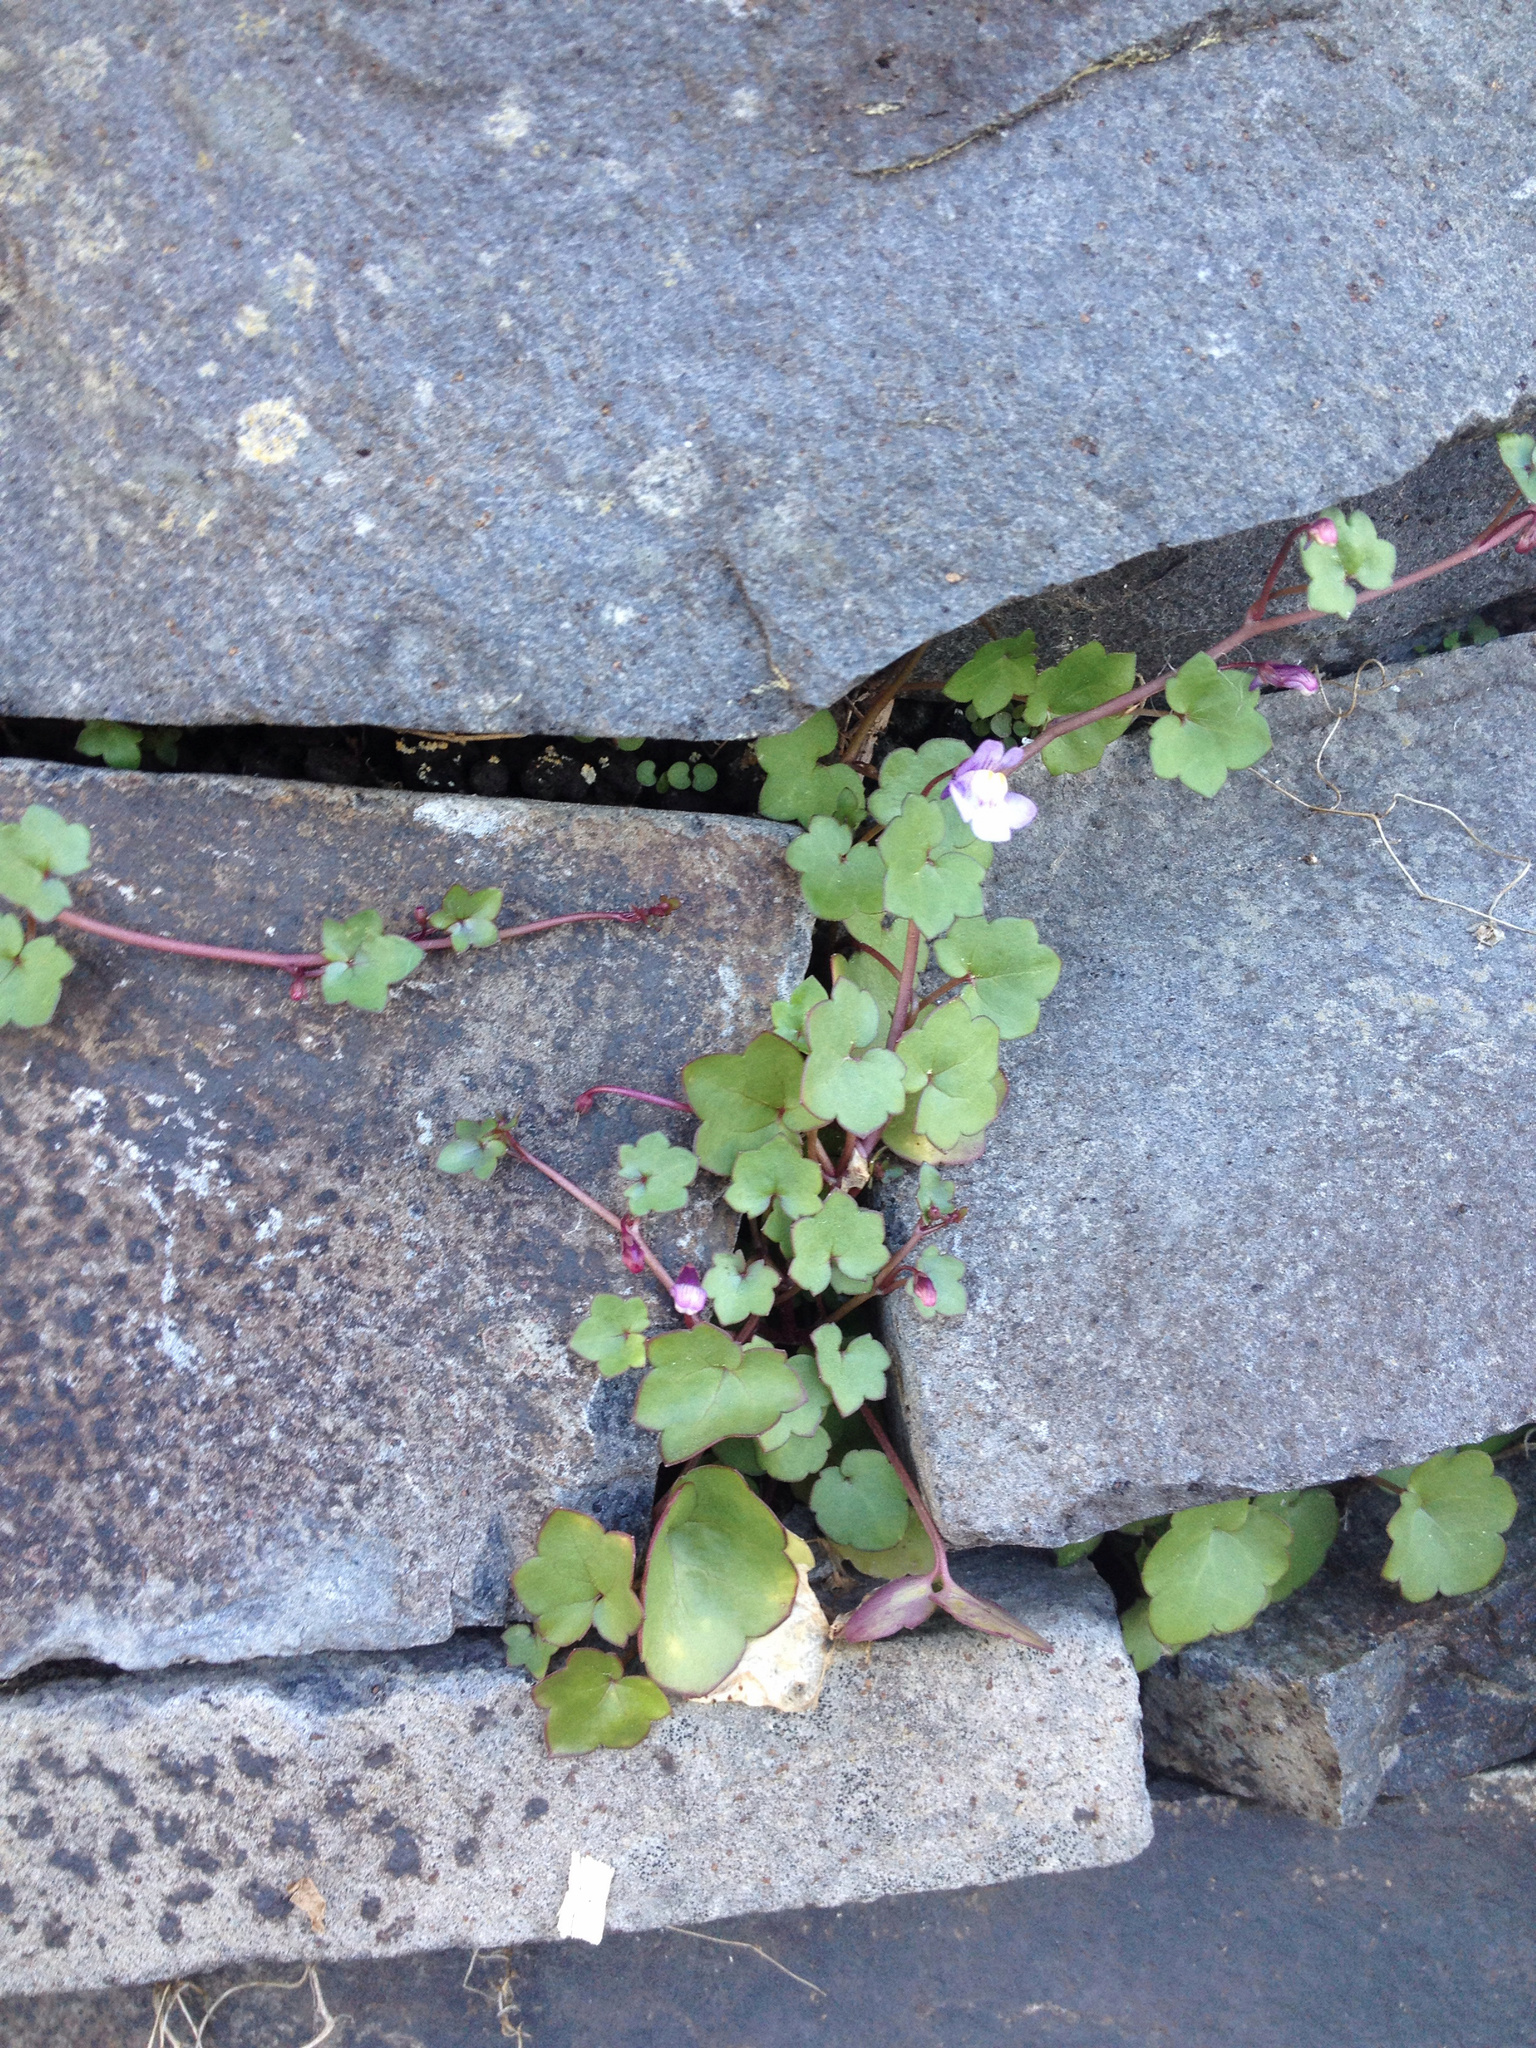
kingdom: Plantae
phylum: Tracheophyta
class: Magnoliopsida
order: Lamiales
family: Plantaginaceae
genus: Cymbalaria
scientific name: Cymbalaria muralis
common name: Ivy-leaved toadflax
